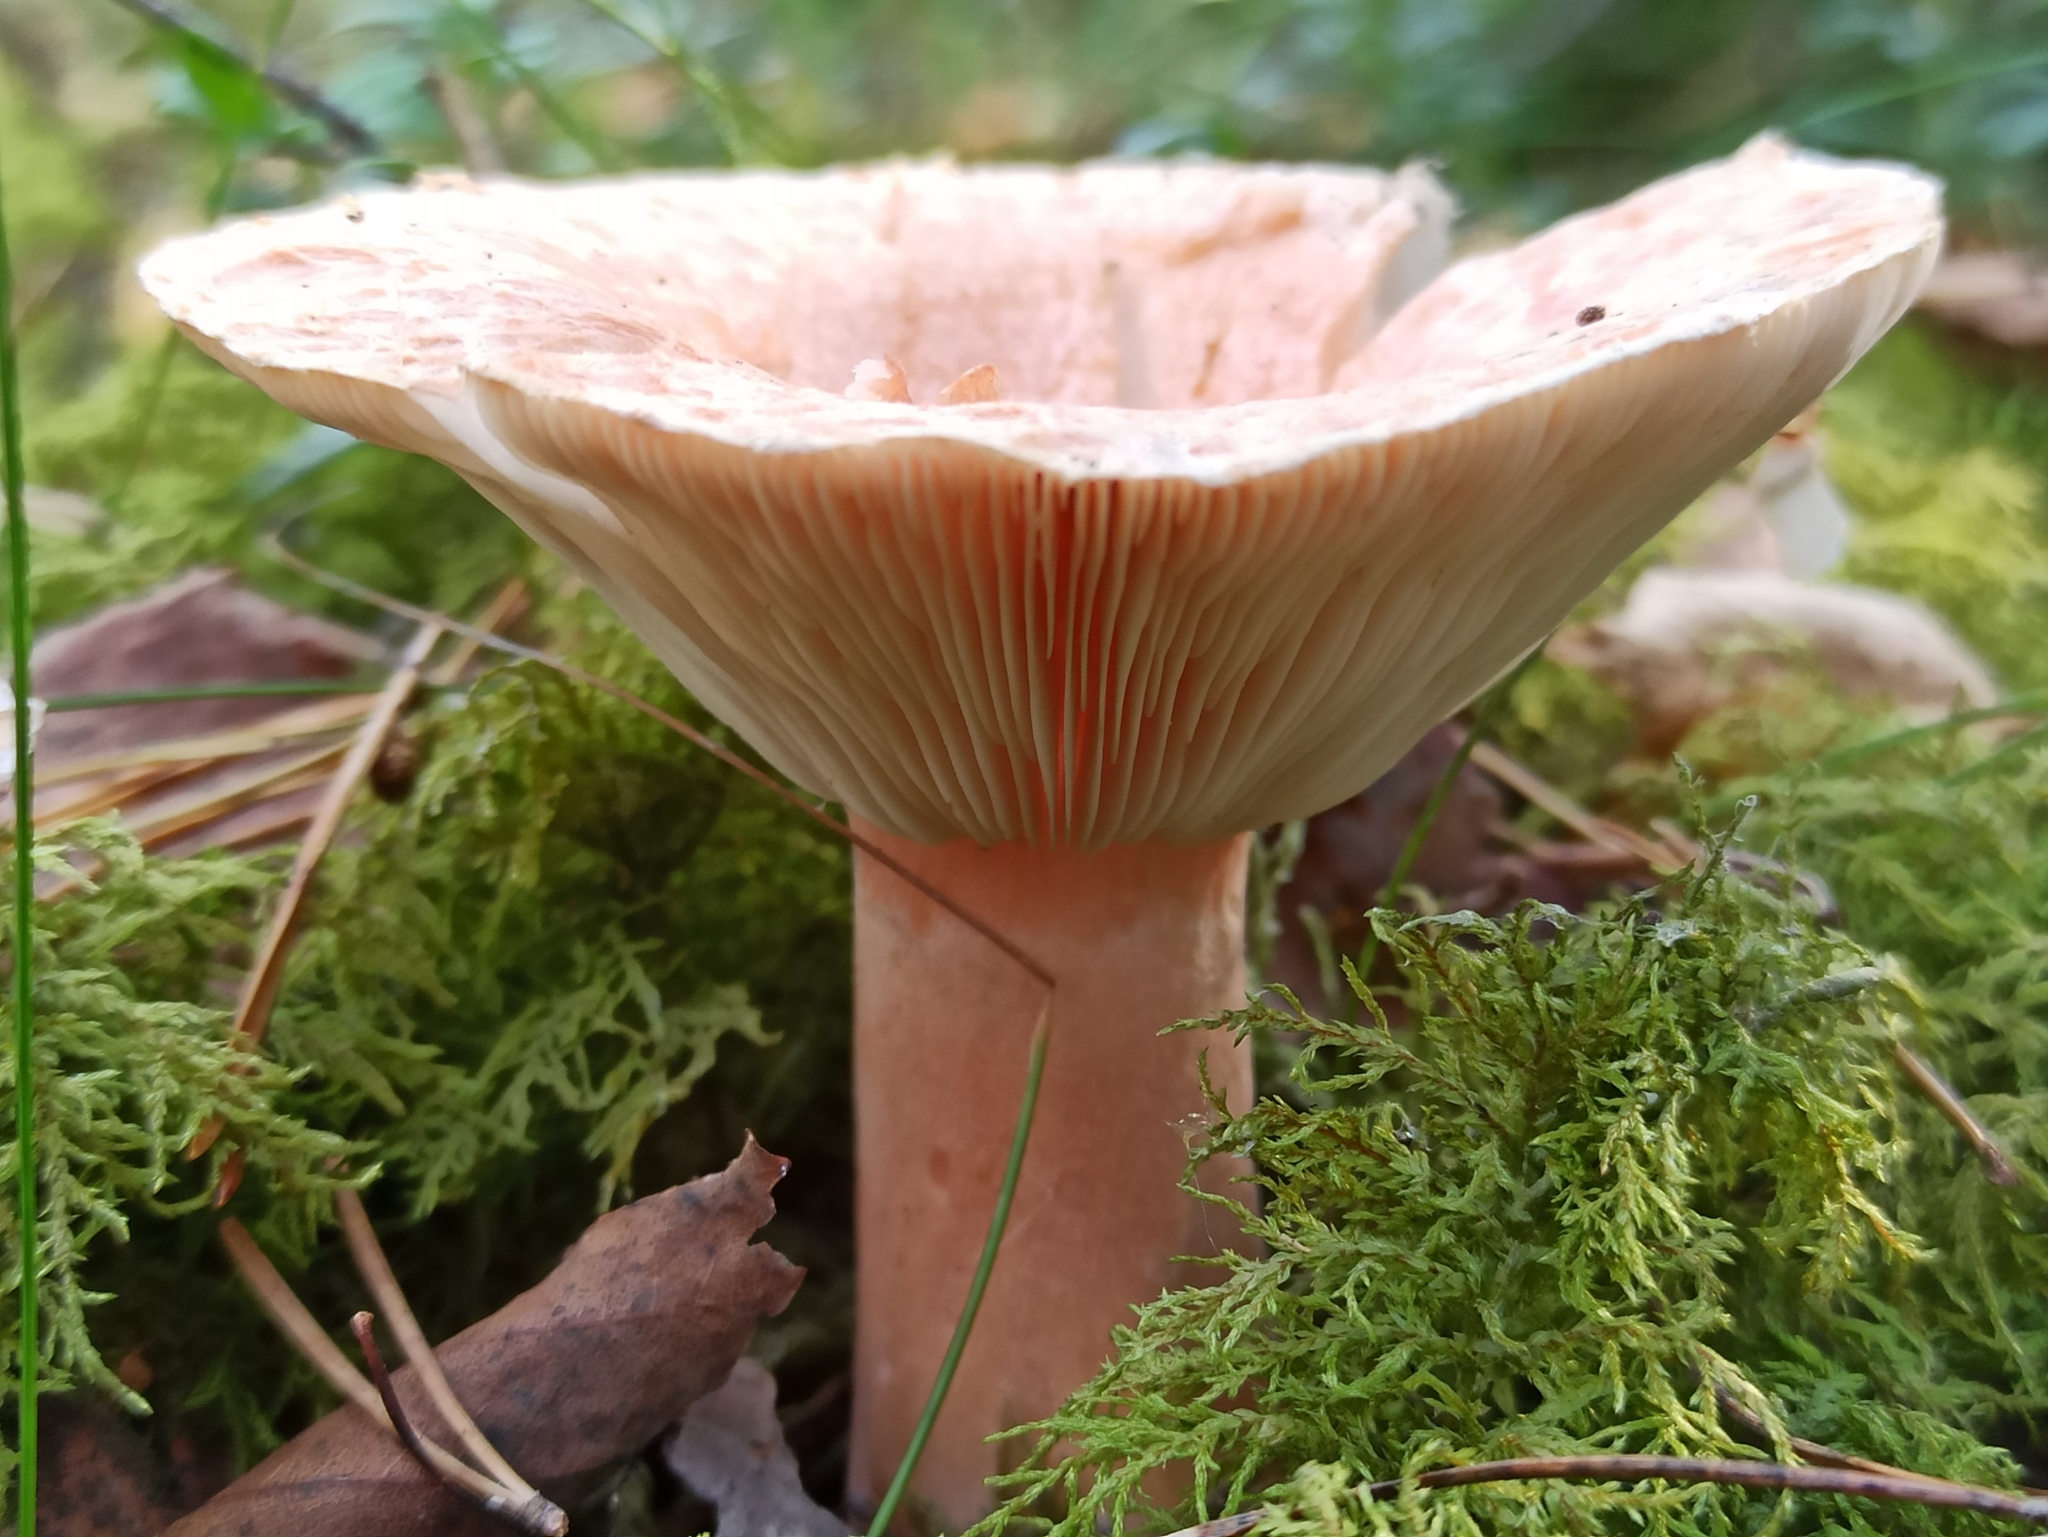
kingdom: Fungi
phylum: Basidiomycota
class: Agaricomycetes
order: Russulales
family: Russulaceae
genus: Lactarius
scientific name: Lactarius torminosus
